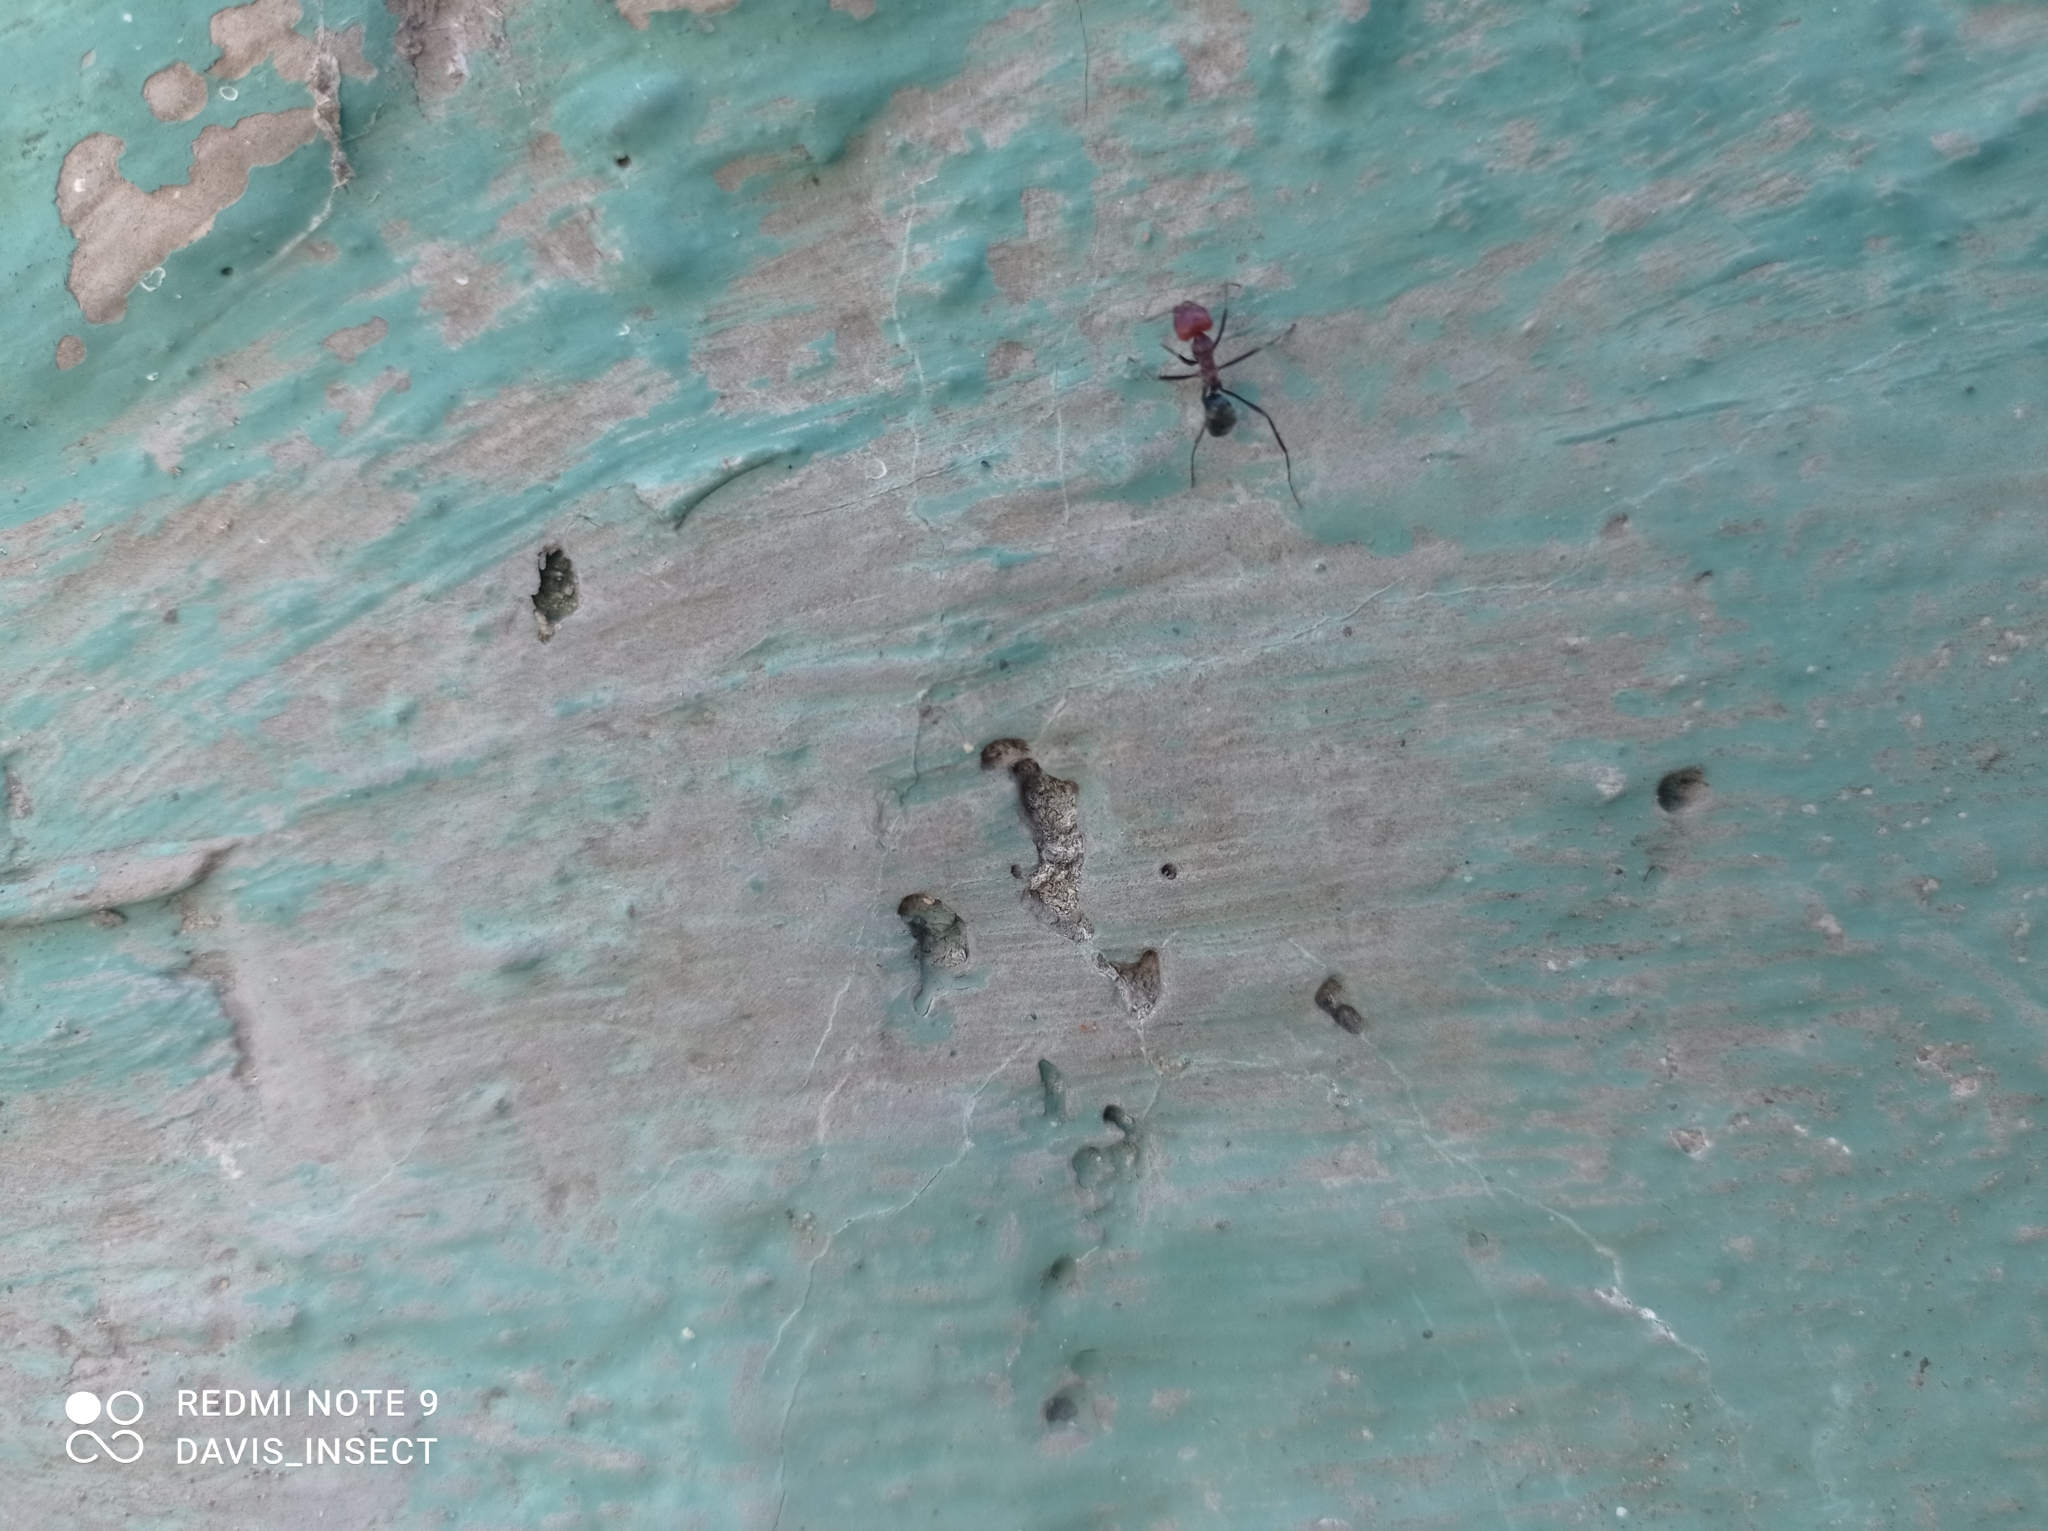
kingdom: Animalia
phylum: Arthropoda
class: Insecta
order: Hymenoptera
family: Formicidae
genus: Iridomyrmex
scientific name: Iridomyrmex sanguineus
